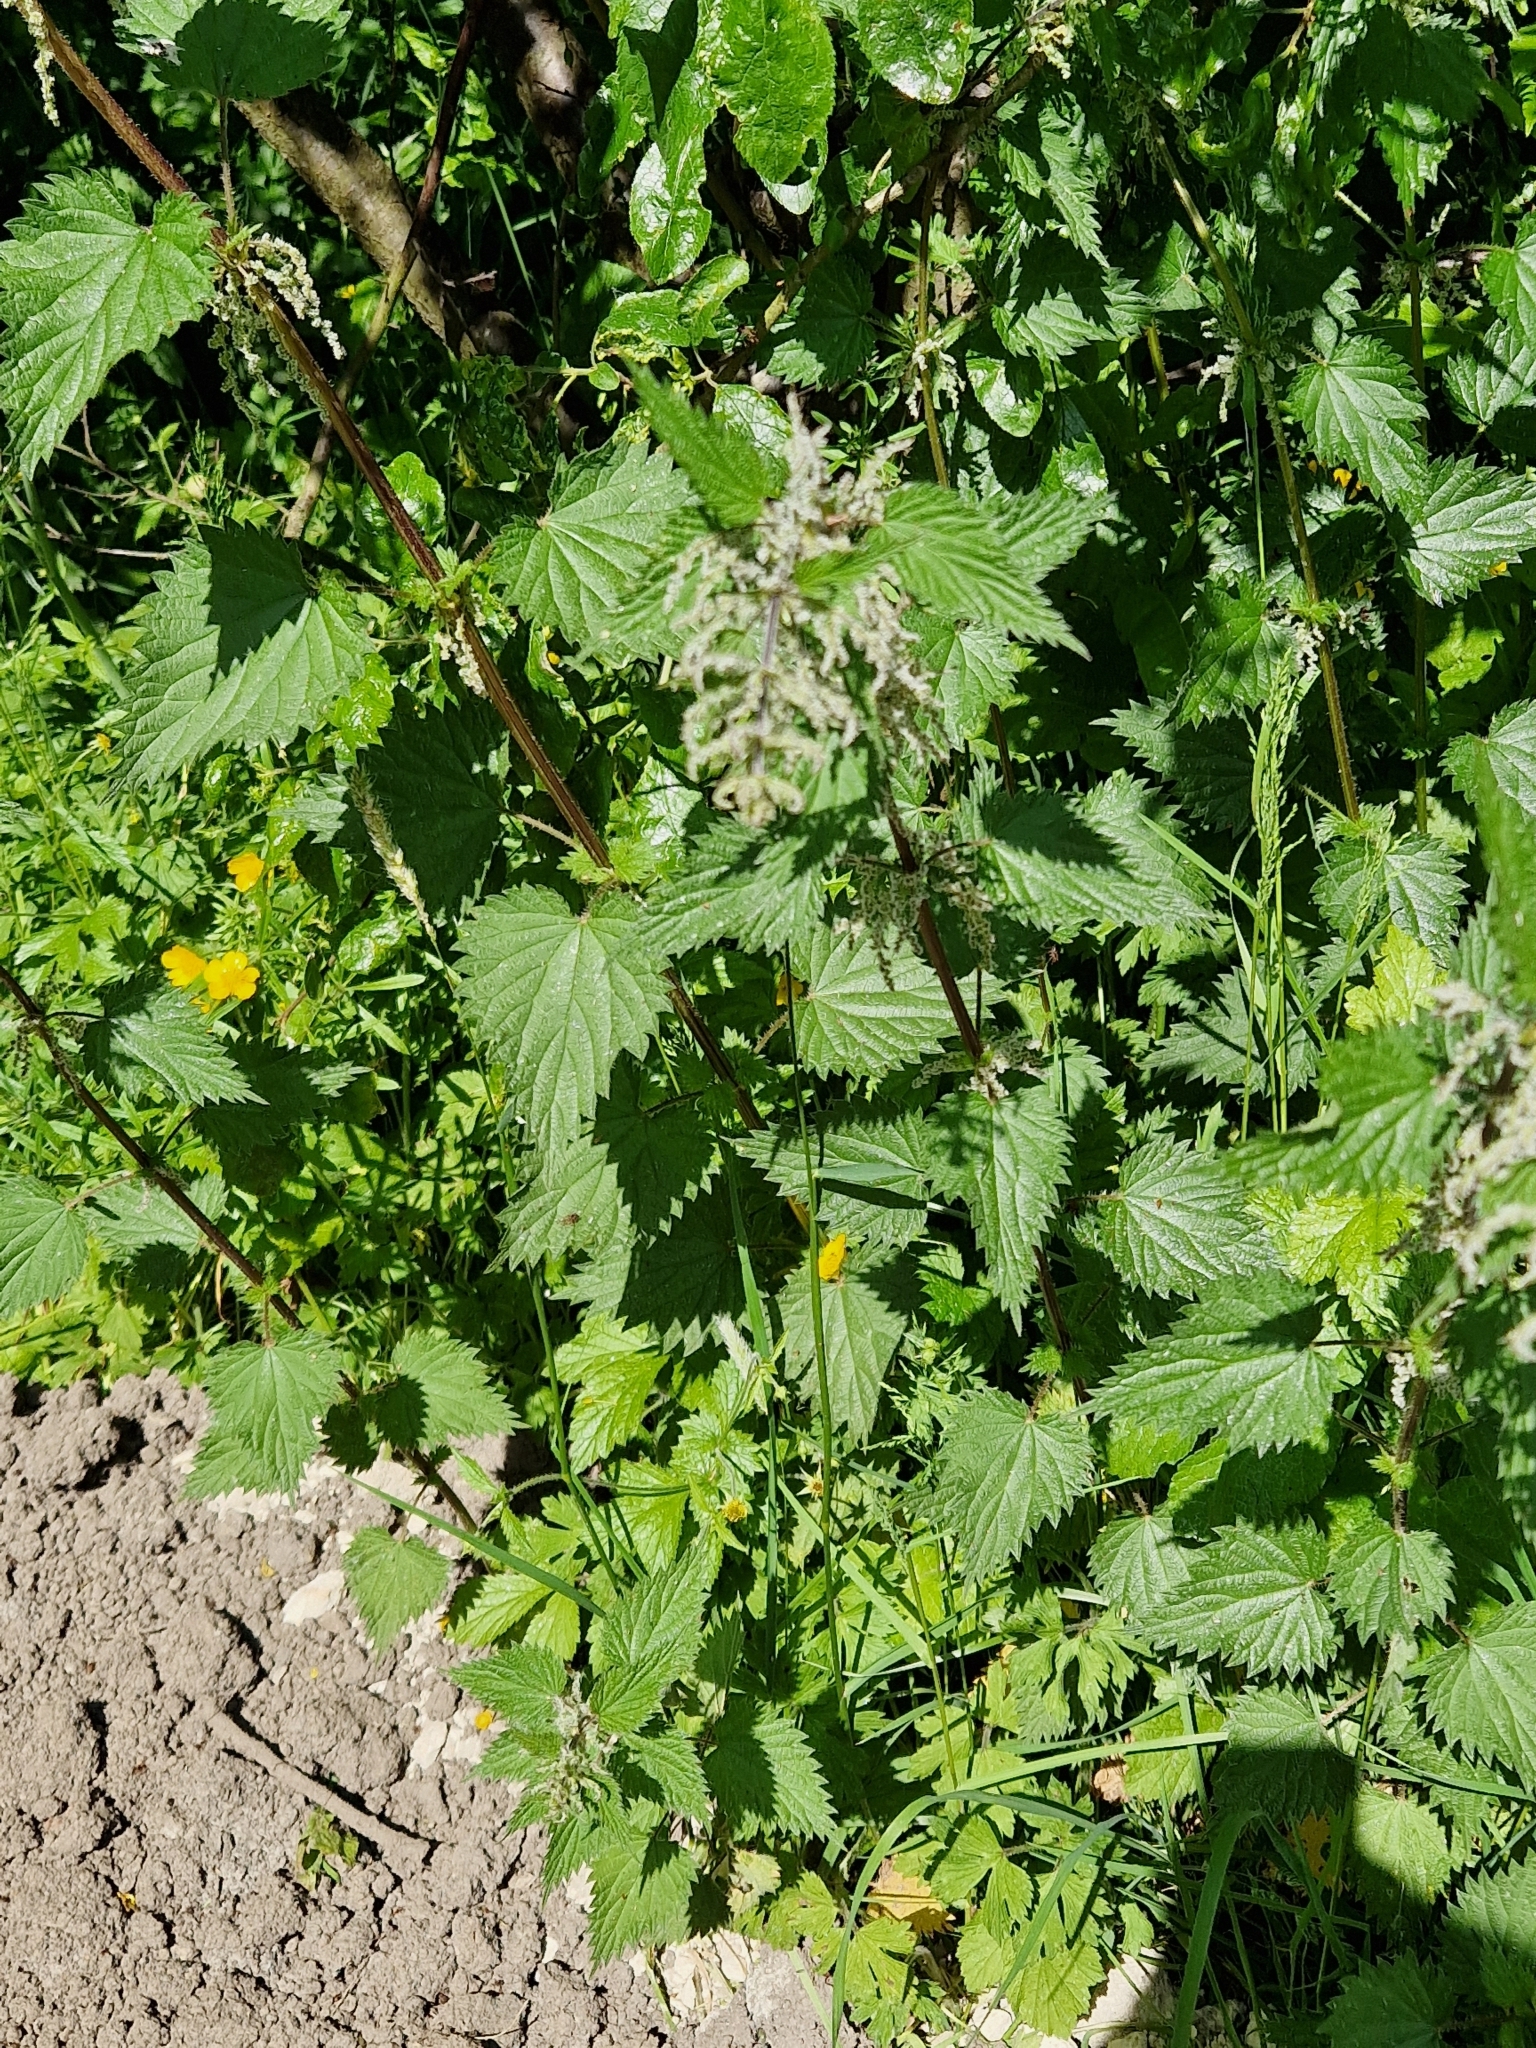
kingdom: Plantae
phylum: Tracheophyta
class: Magnoliopsida
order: Rosales
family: Urticaceae
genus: Urtica
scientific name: Urtica dioica
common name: Common nettle
